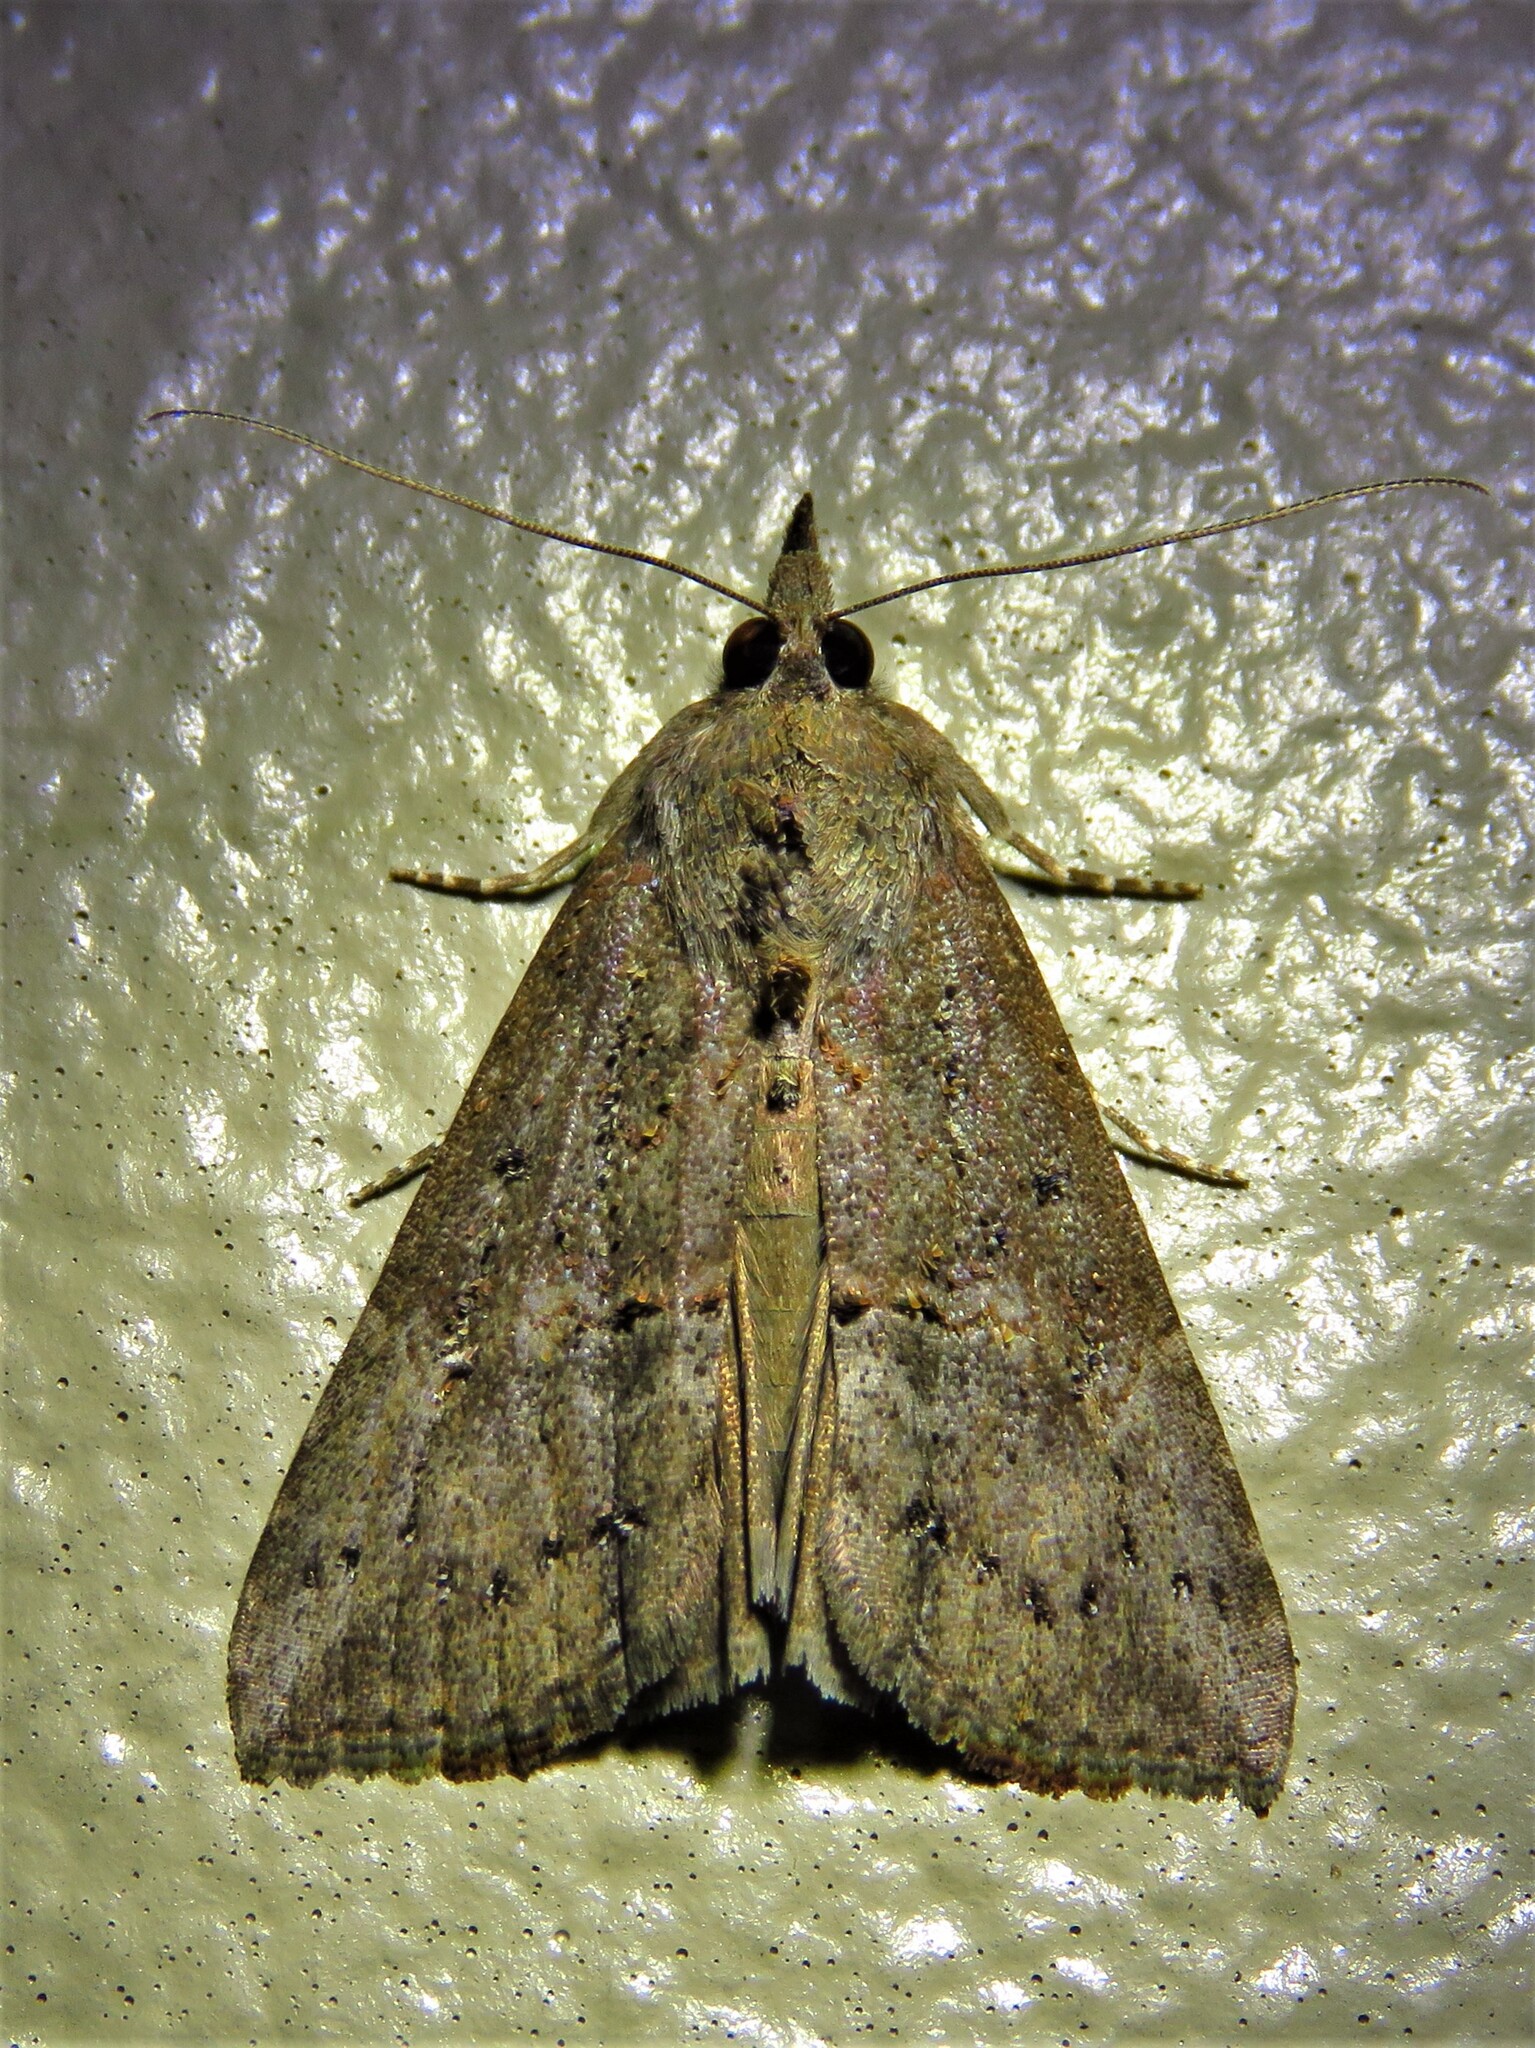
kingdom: Animalia
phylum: Arthropoda
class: Insecta
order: Lepidoptera
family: Erebidae
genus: Hypena
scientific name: Hypena scabra
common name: Green cloverworm
